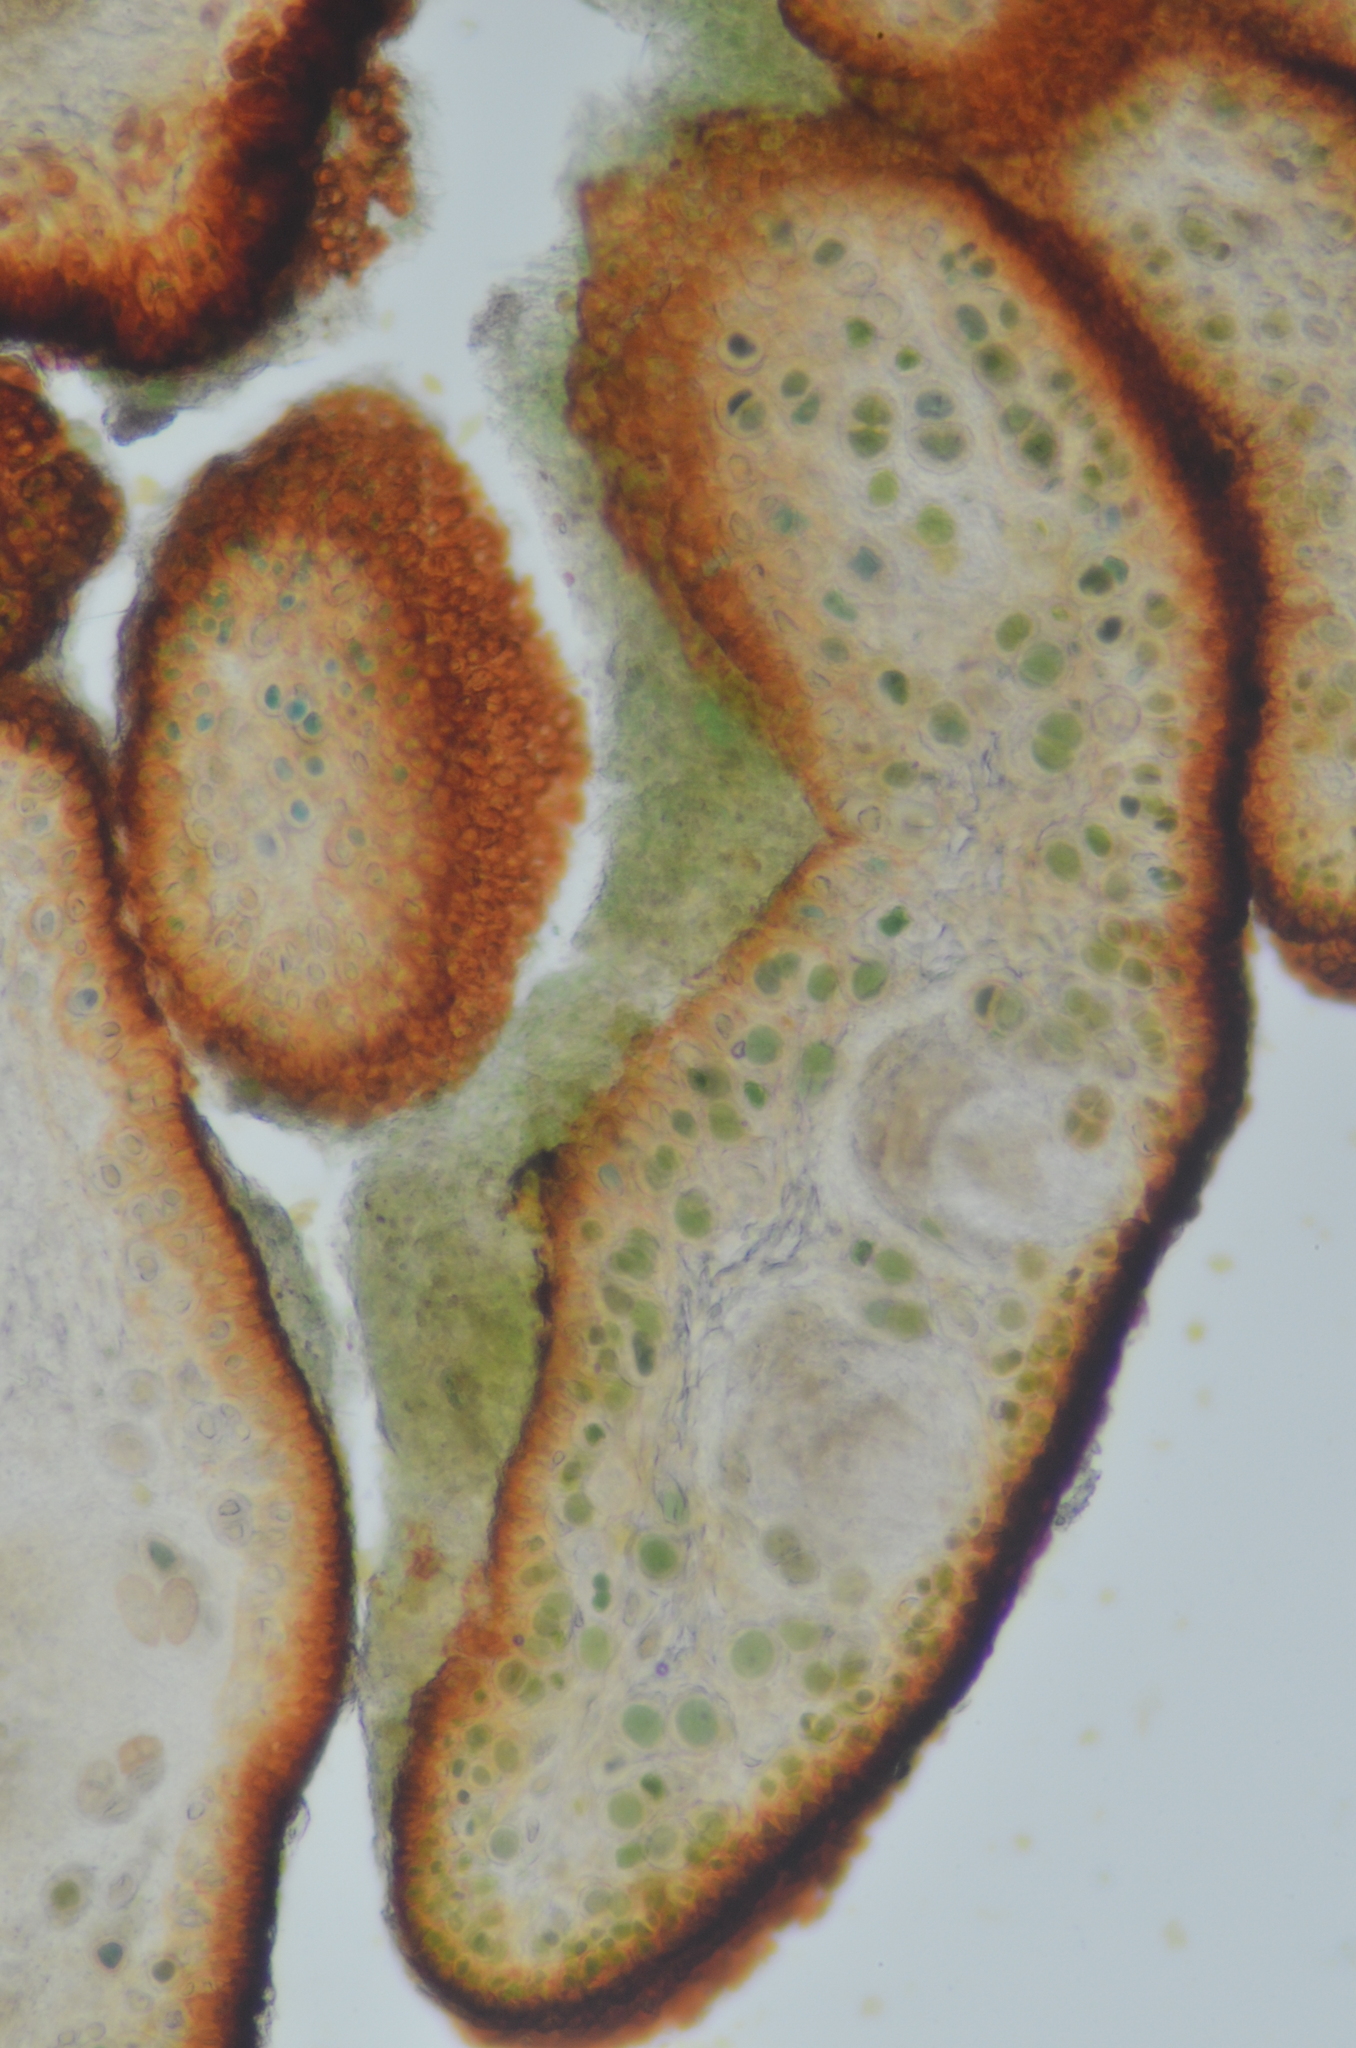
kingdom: Fungi
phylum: Ascomycota
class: Lichinomycetes
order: Lichinales
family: Lichinaceae
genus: Phylliscum
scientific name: Phylliscum demangeonii
